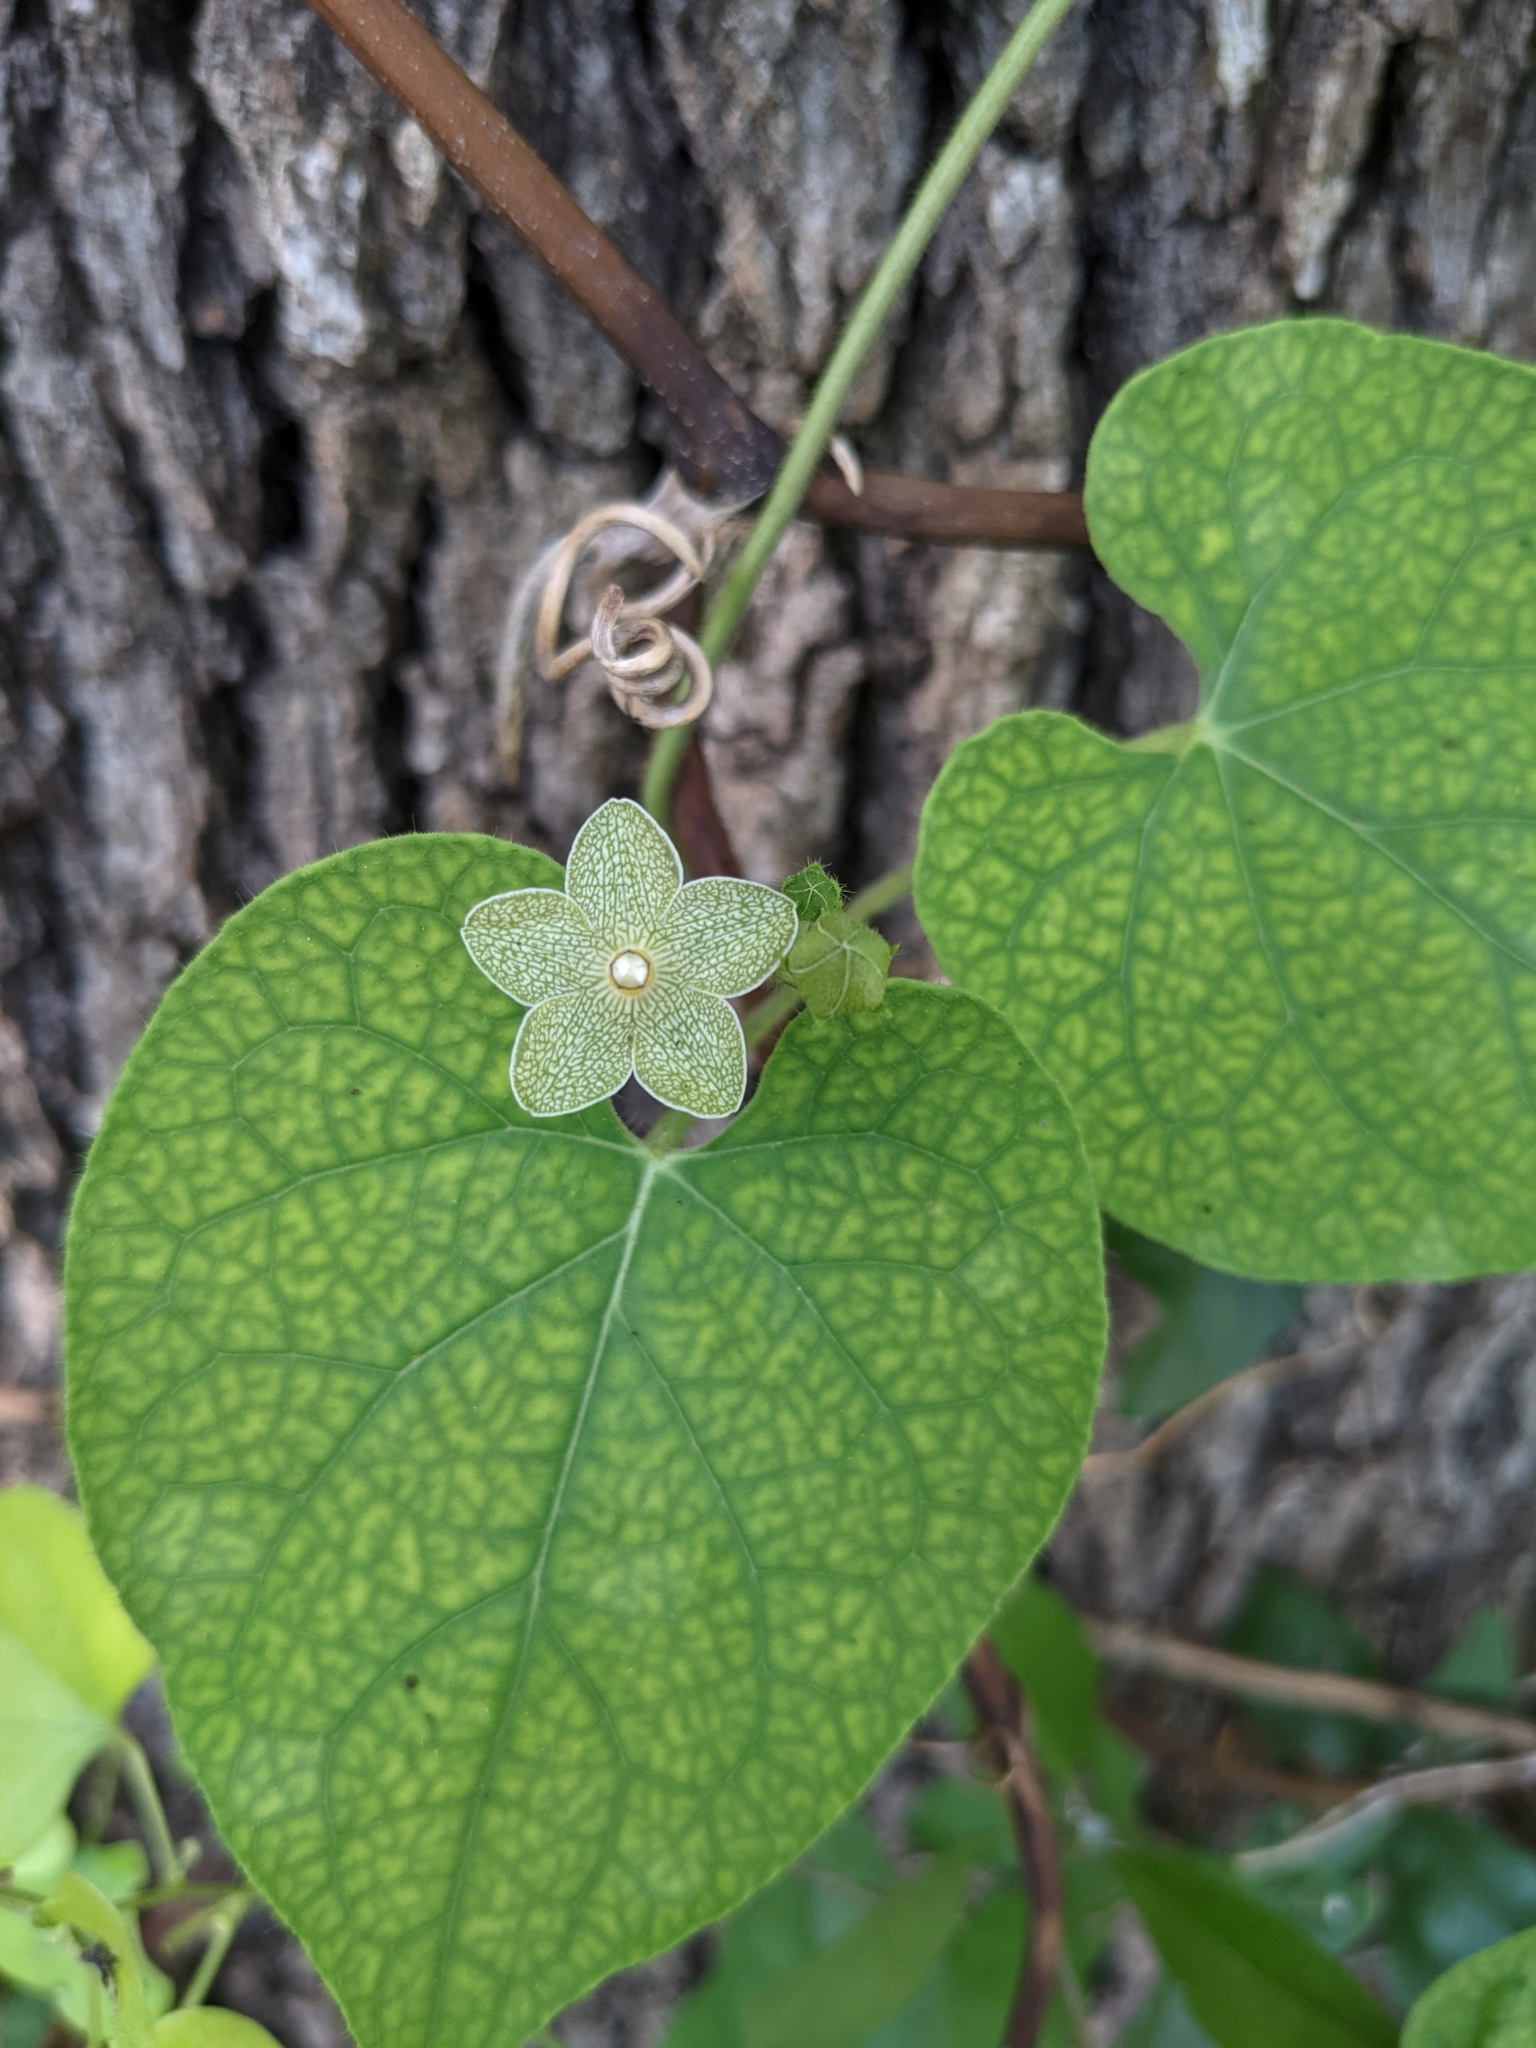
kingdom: Plantae
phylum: Tracheophyta
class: Magnoliopsida
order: Gentianales
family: Apocynaceae
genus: Dictyanthus
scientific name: Dictyanthus reticulatus
